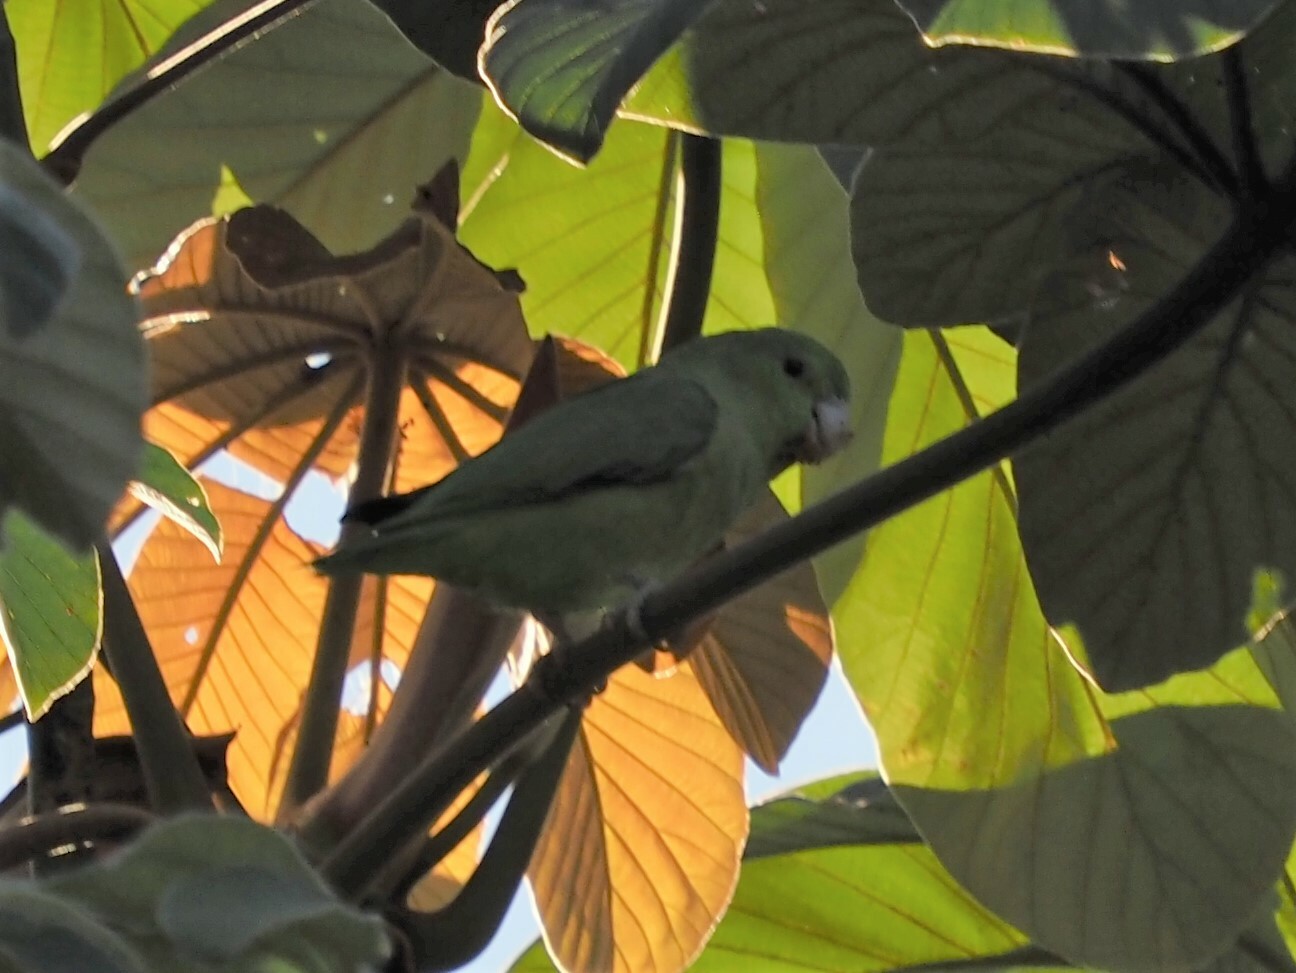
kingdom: Animalia
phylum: Chordata
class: Aves
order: Psittaciformes
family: Psittacidae
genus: Forpus
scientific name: Forpus cyanopygius
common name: Mexican parrotlet
